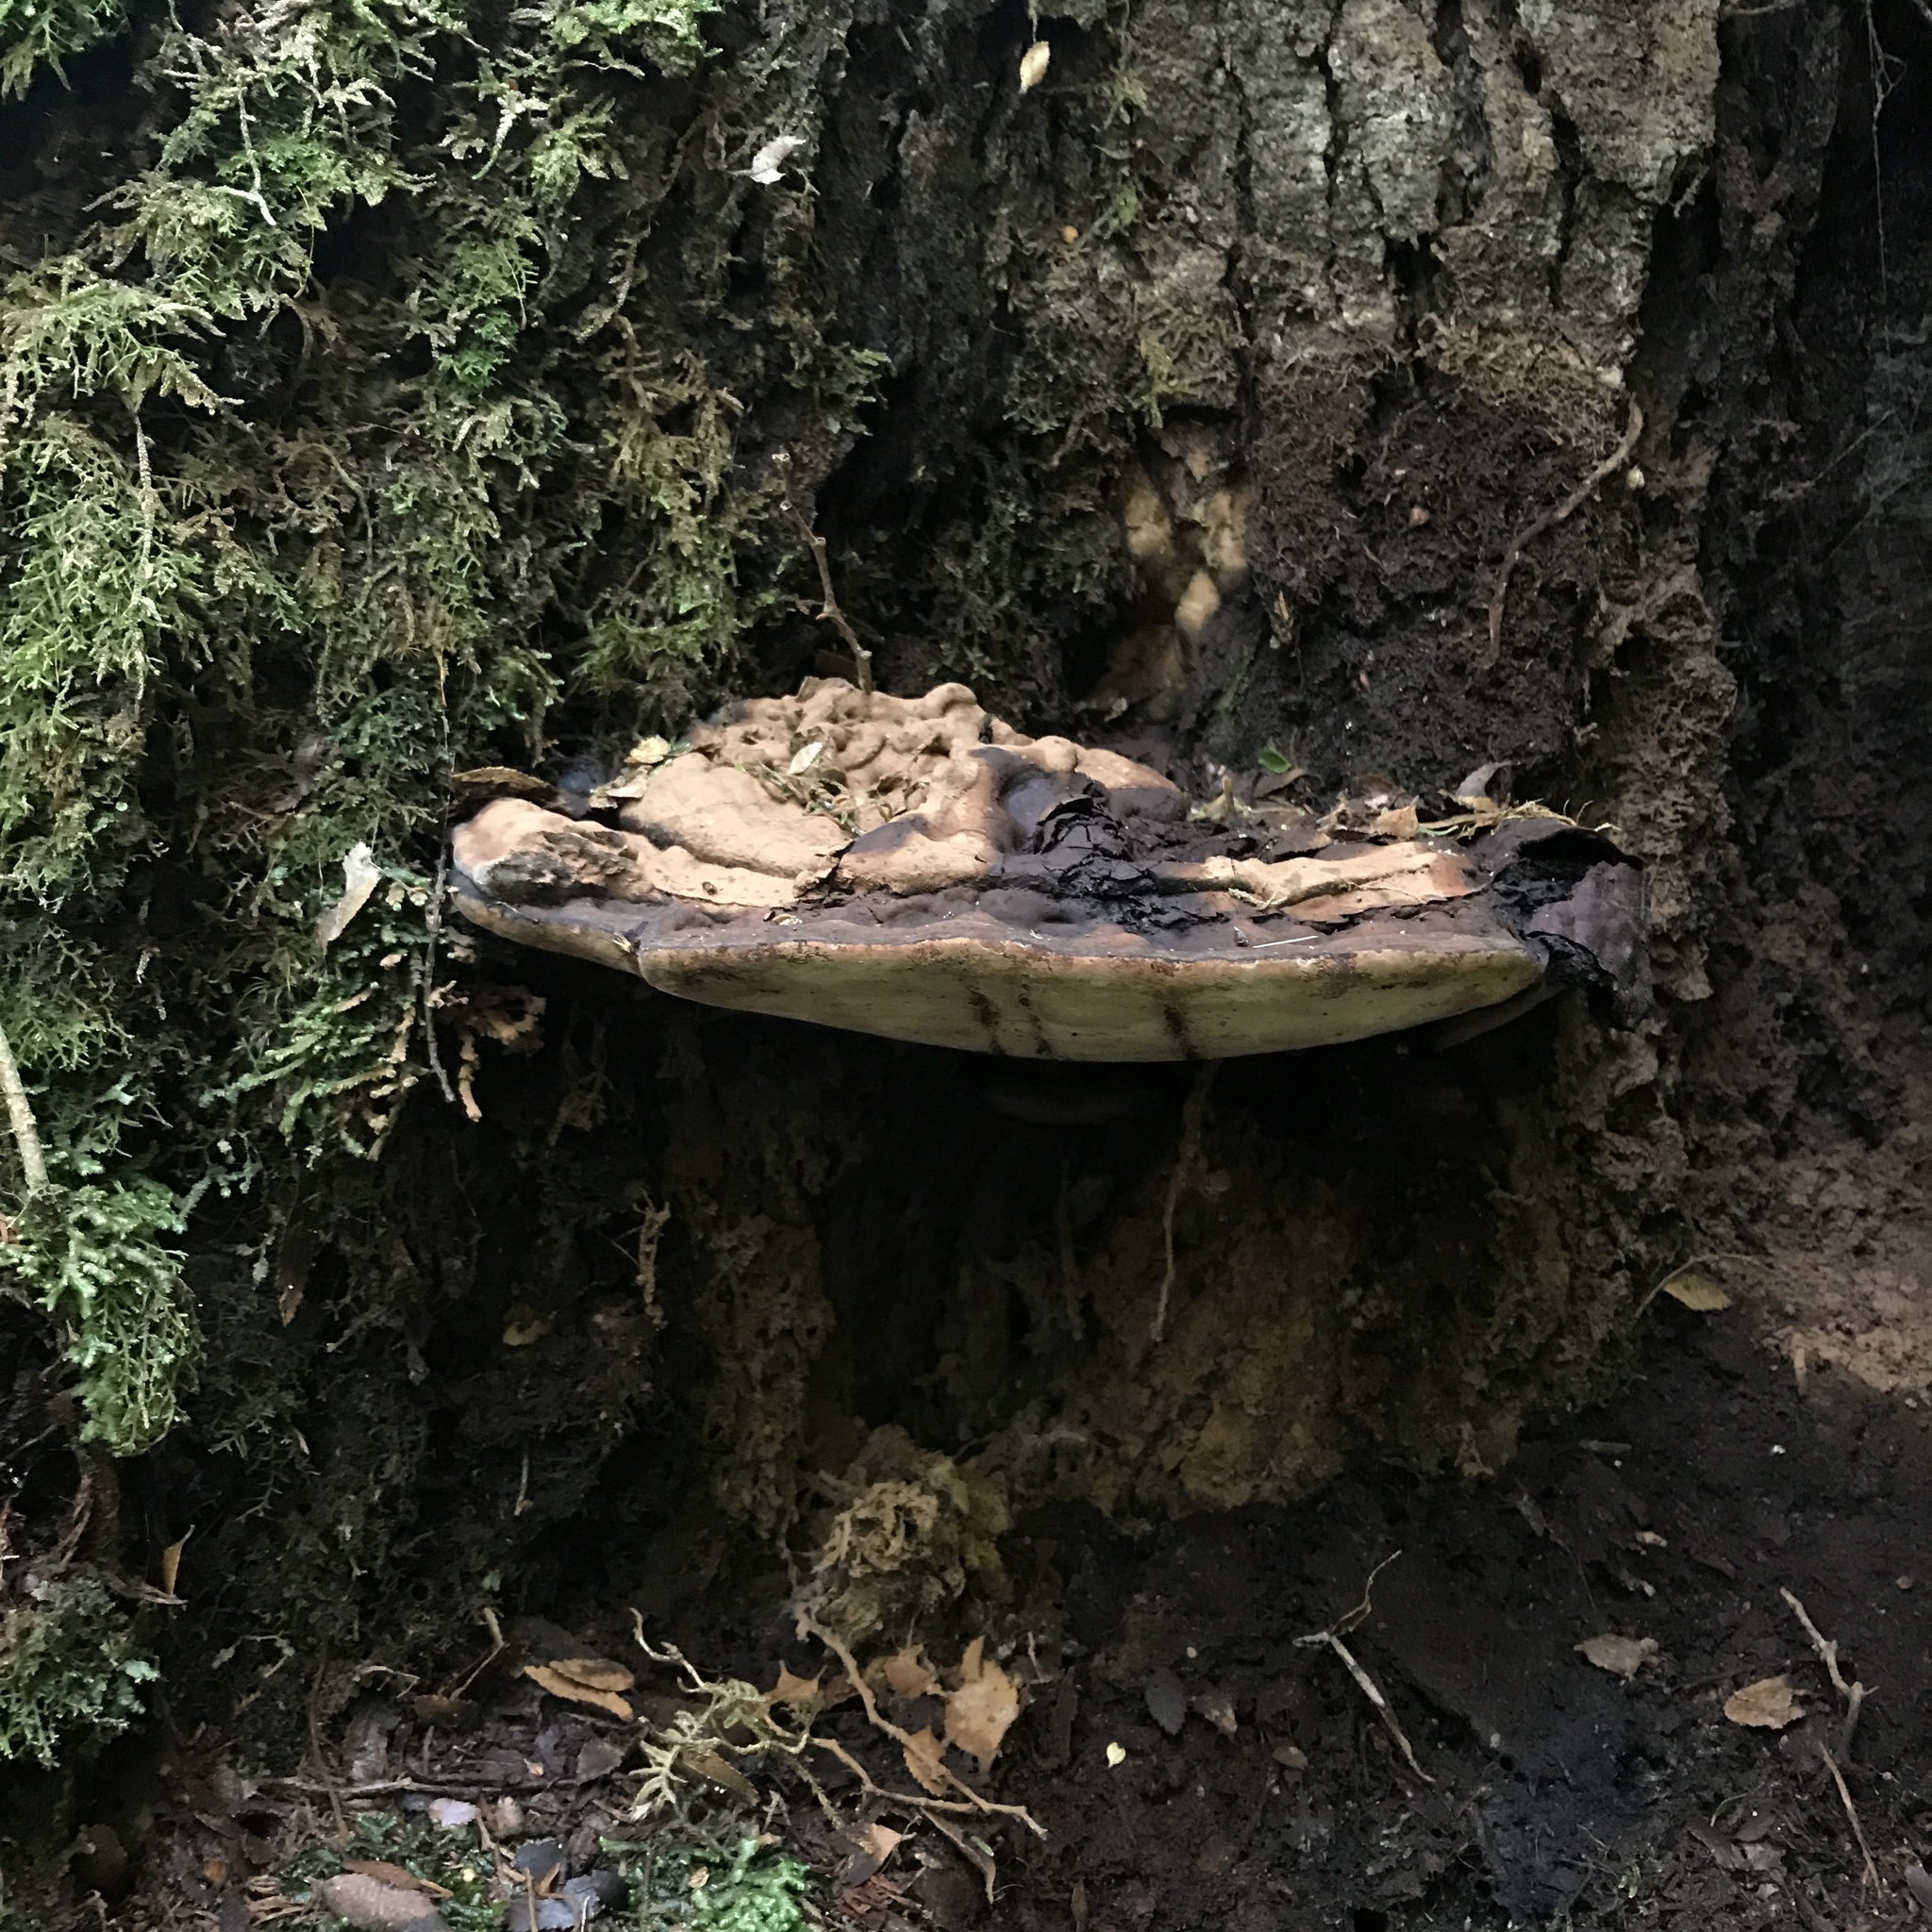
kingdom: Fungi
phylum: Basidiomycota
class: Agaricomycetes
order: Polyporales
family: Polyporaceae
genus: Ganoderma
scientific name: Ganoderma australe
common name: Southern bracket
